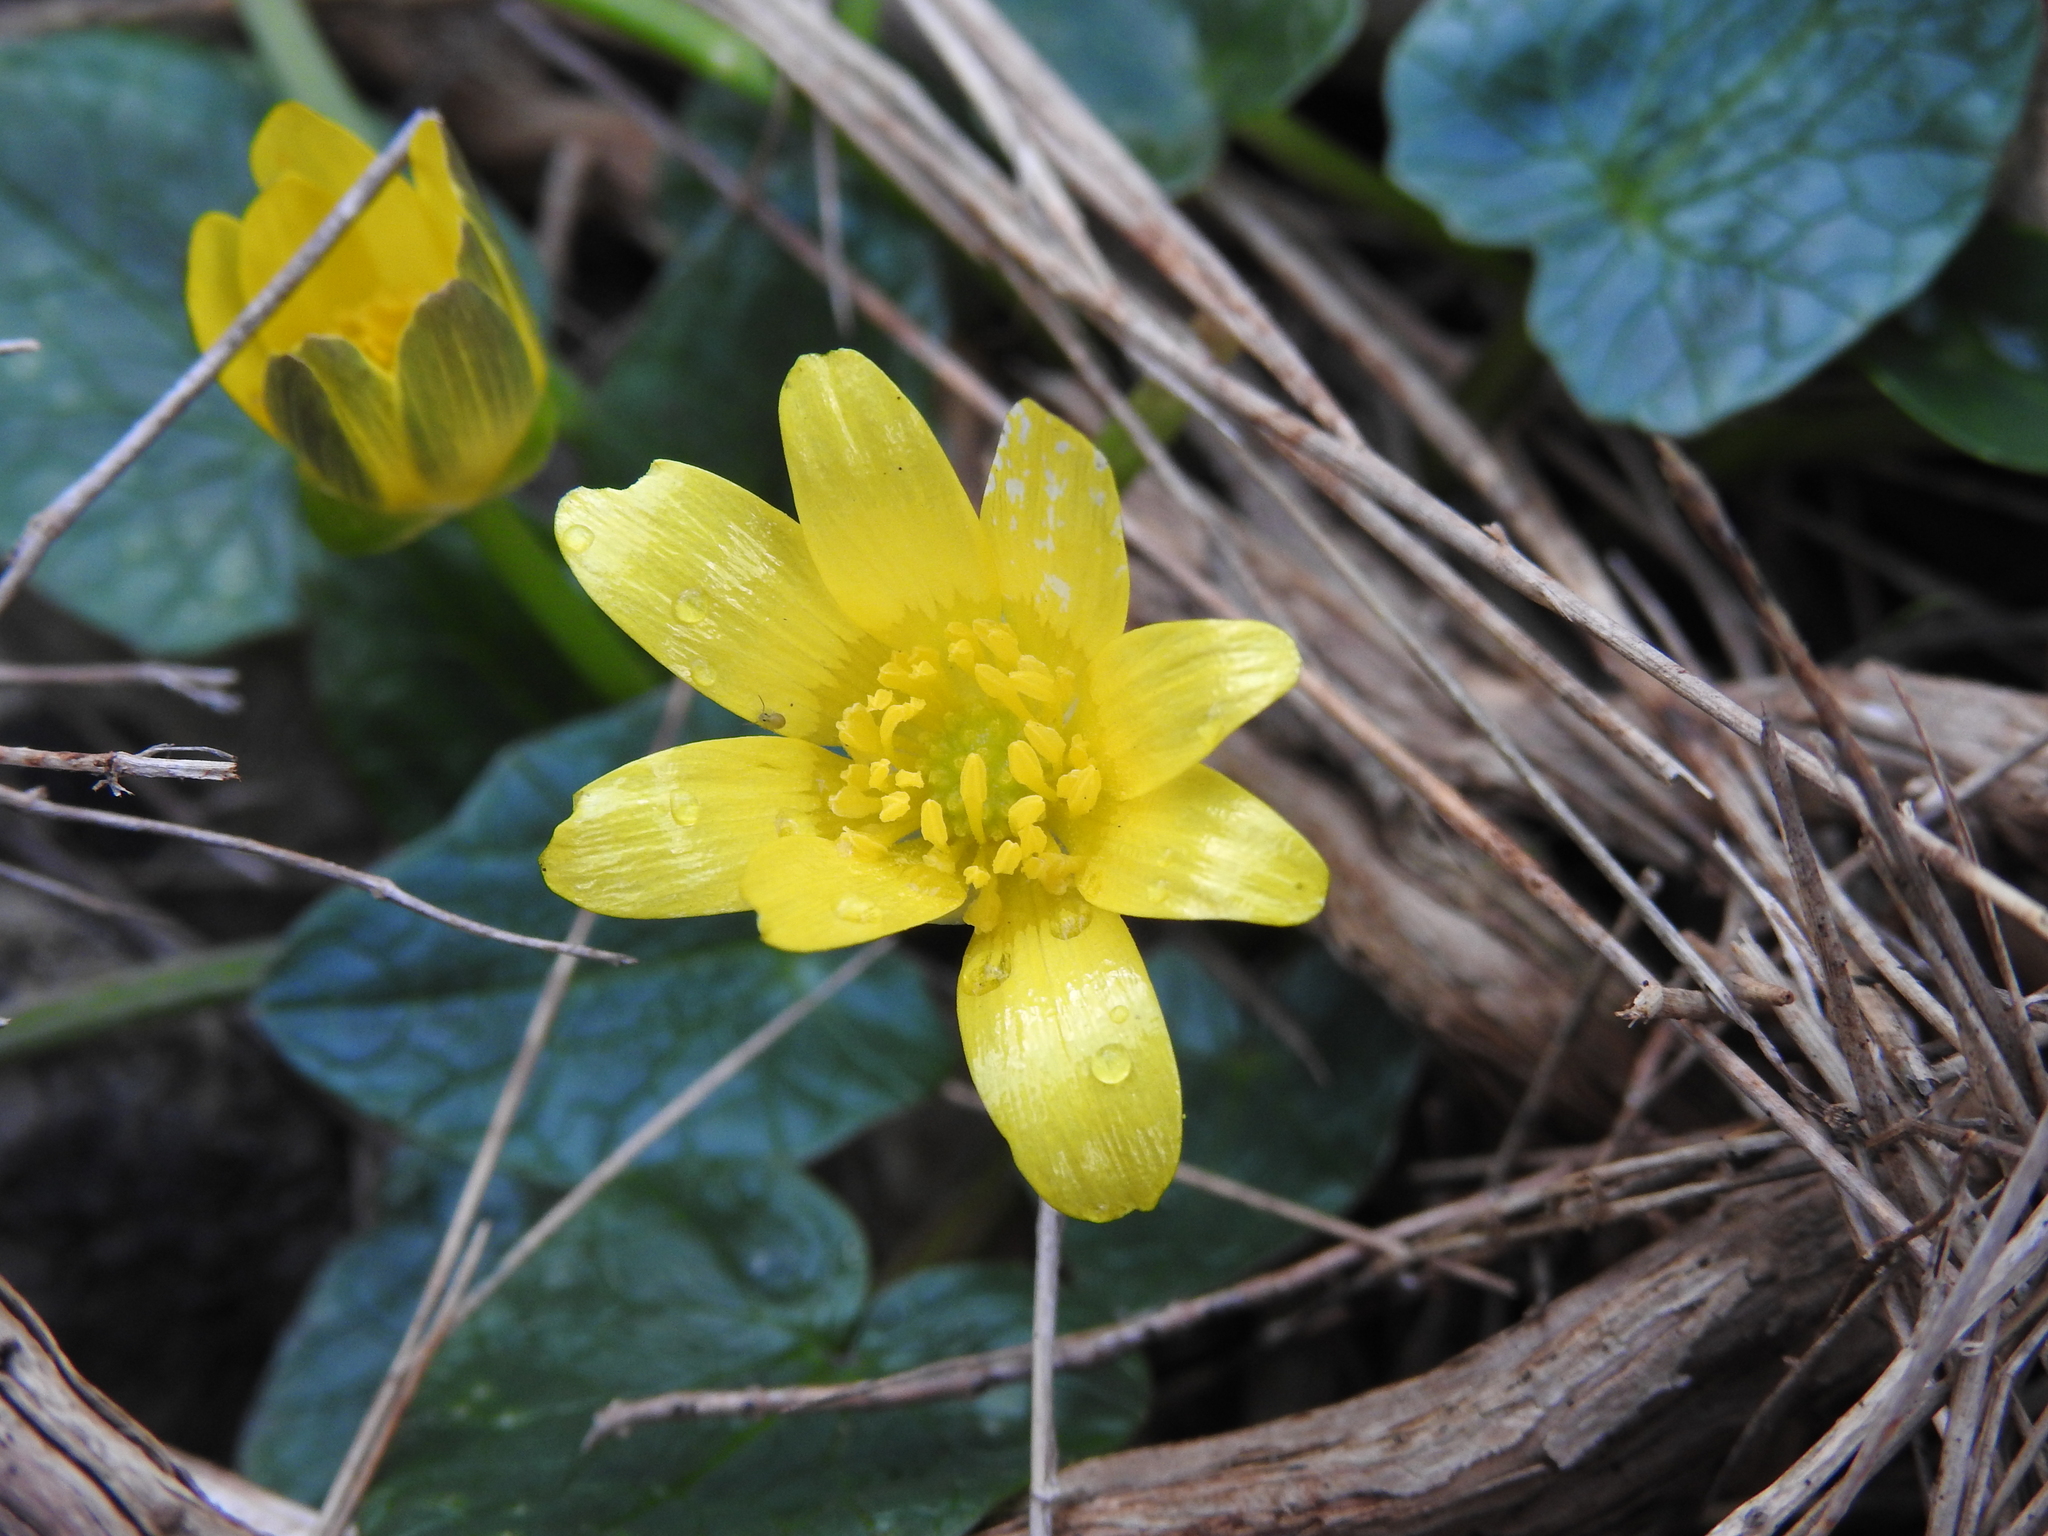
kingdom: Plantae
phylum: Tracheophyta
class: Magnoliopsida
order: Ranunculales
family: Ranunculaceae
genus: Ficaria
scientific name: Ficaria verna
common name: Lesser celandine
